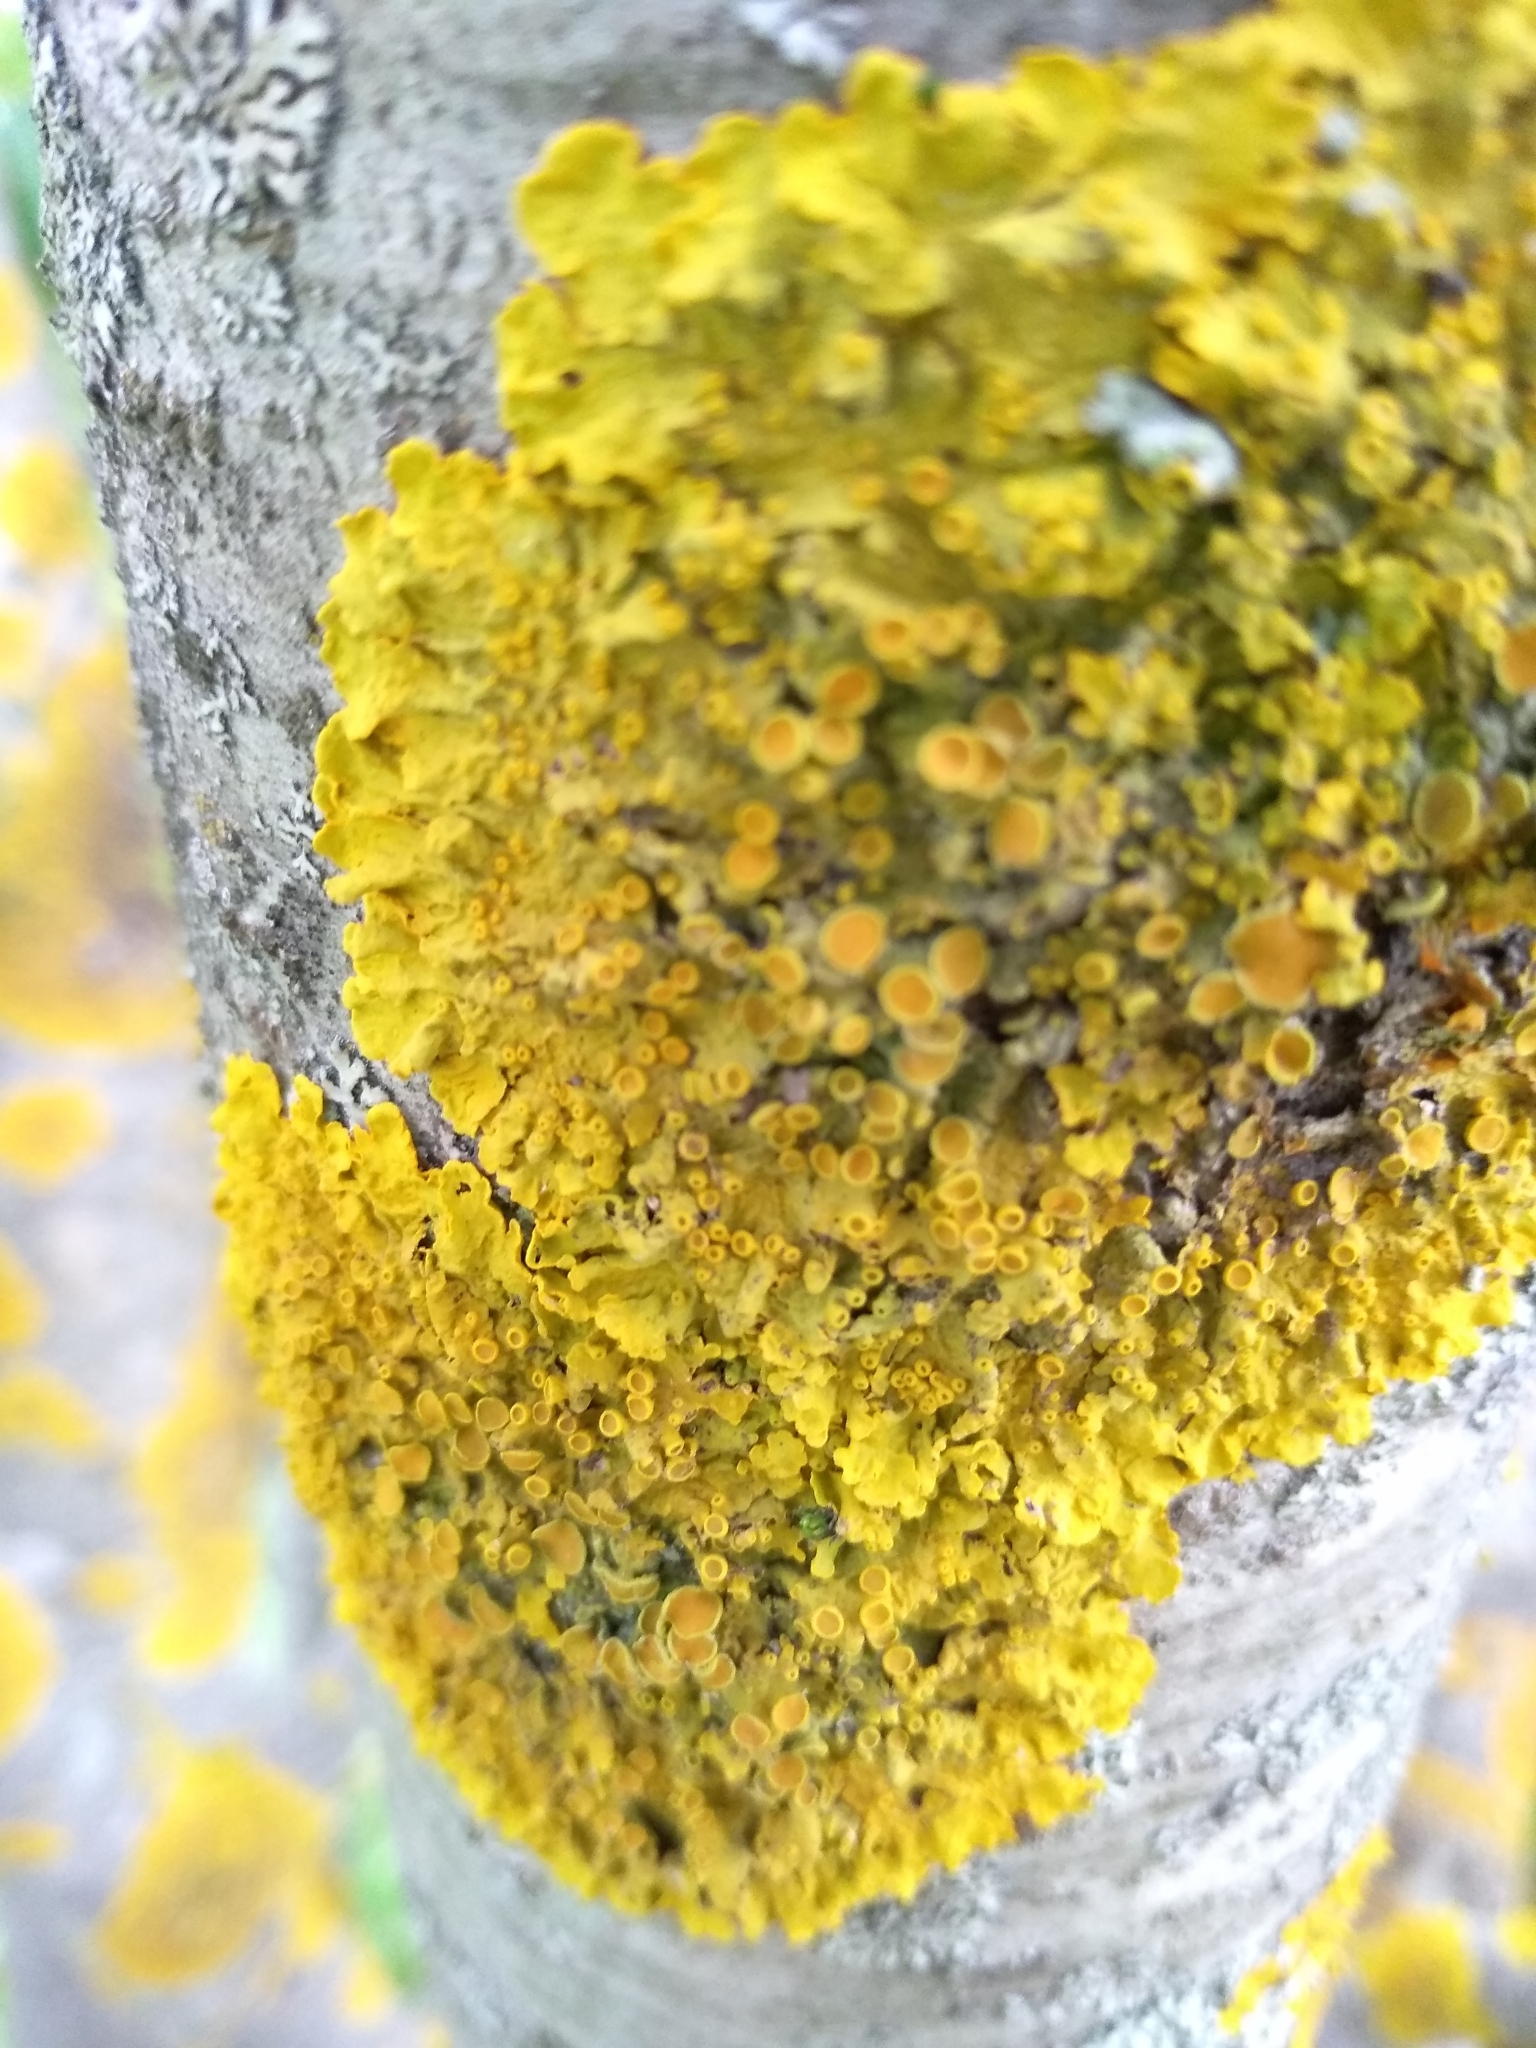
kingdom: Fungi
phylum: Ascomycota
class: Lecanoromycetes
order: Teloschistales
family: Teloschistaceae
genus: Xanthoria
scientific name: Xanthoria parietina
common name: Common orange lichen
